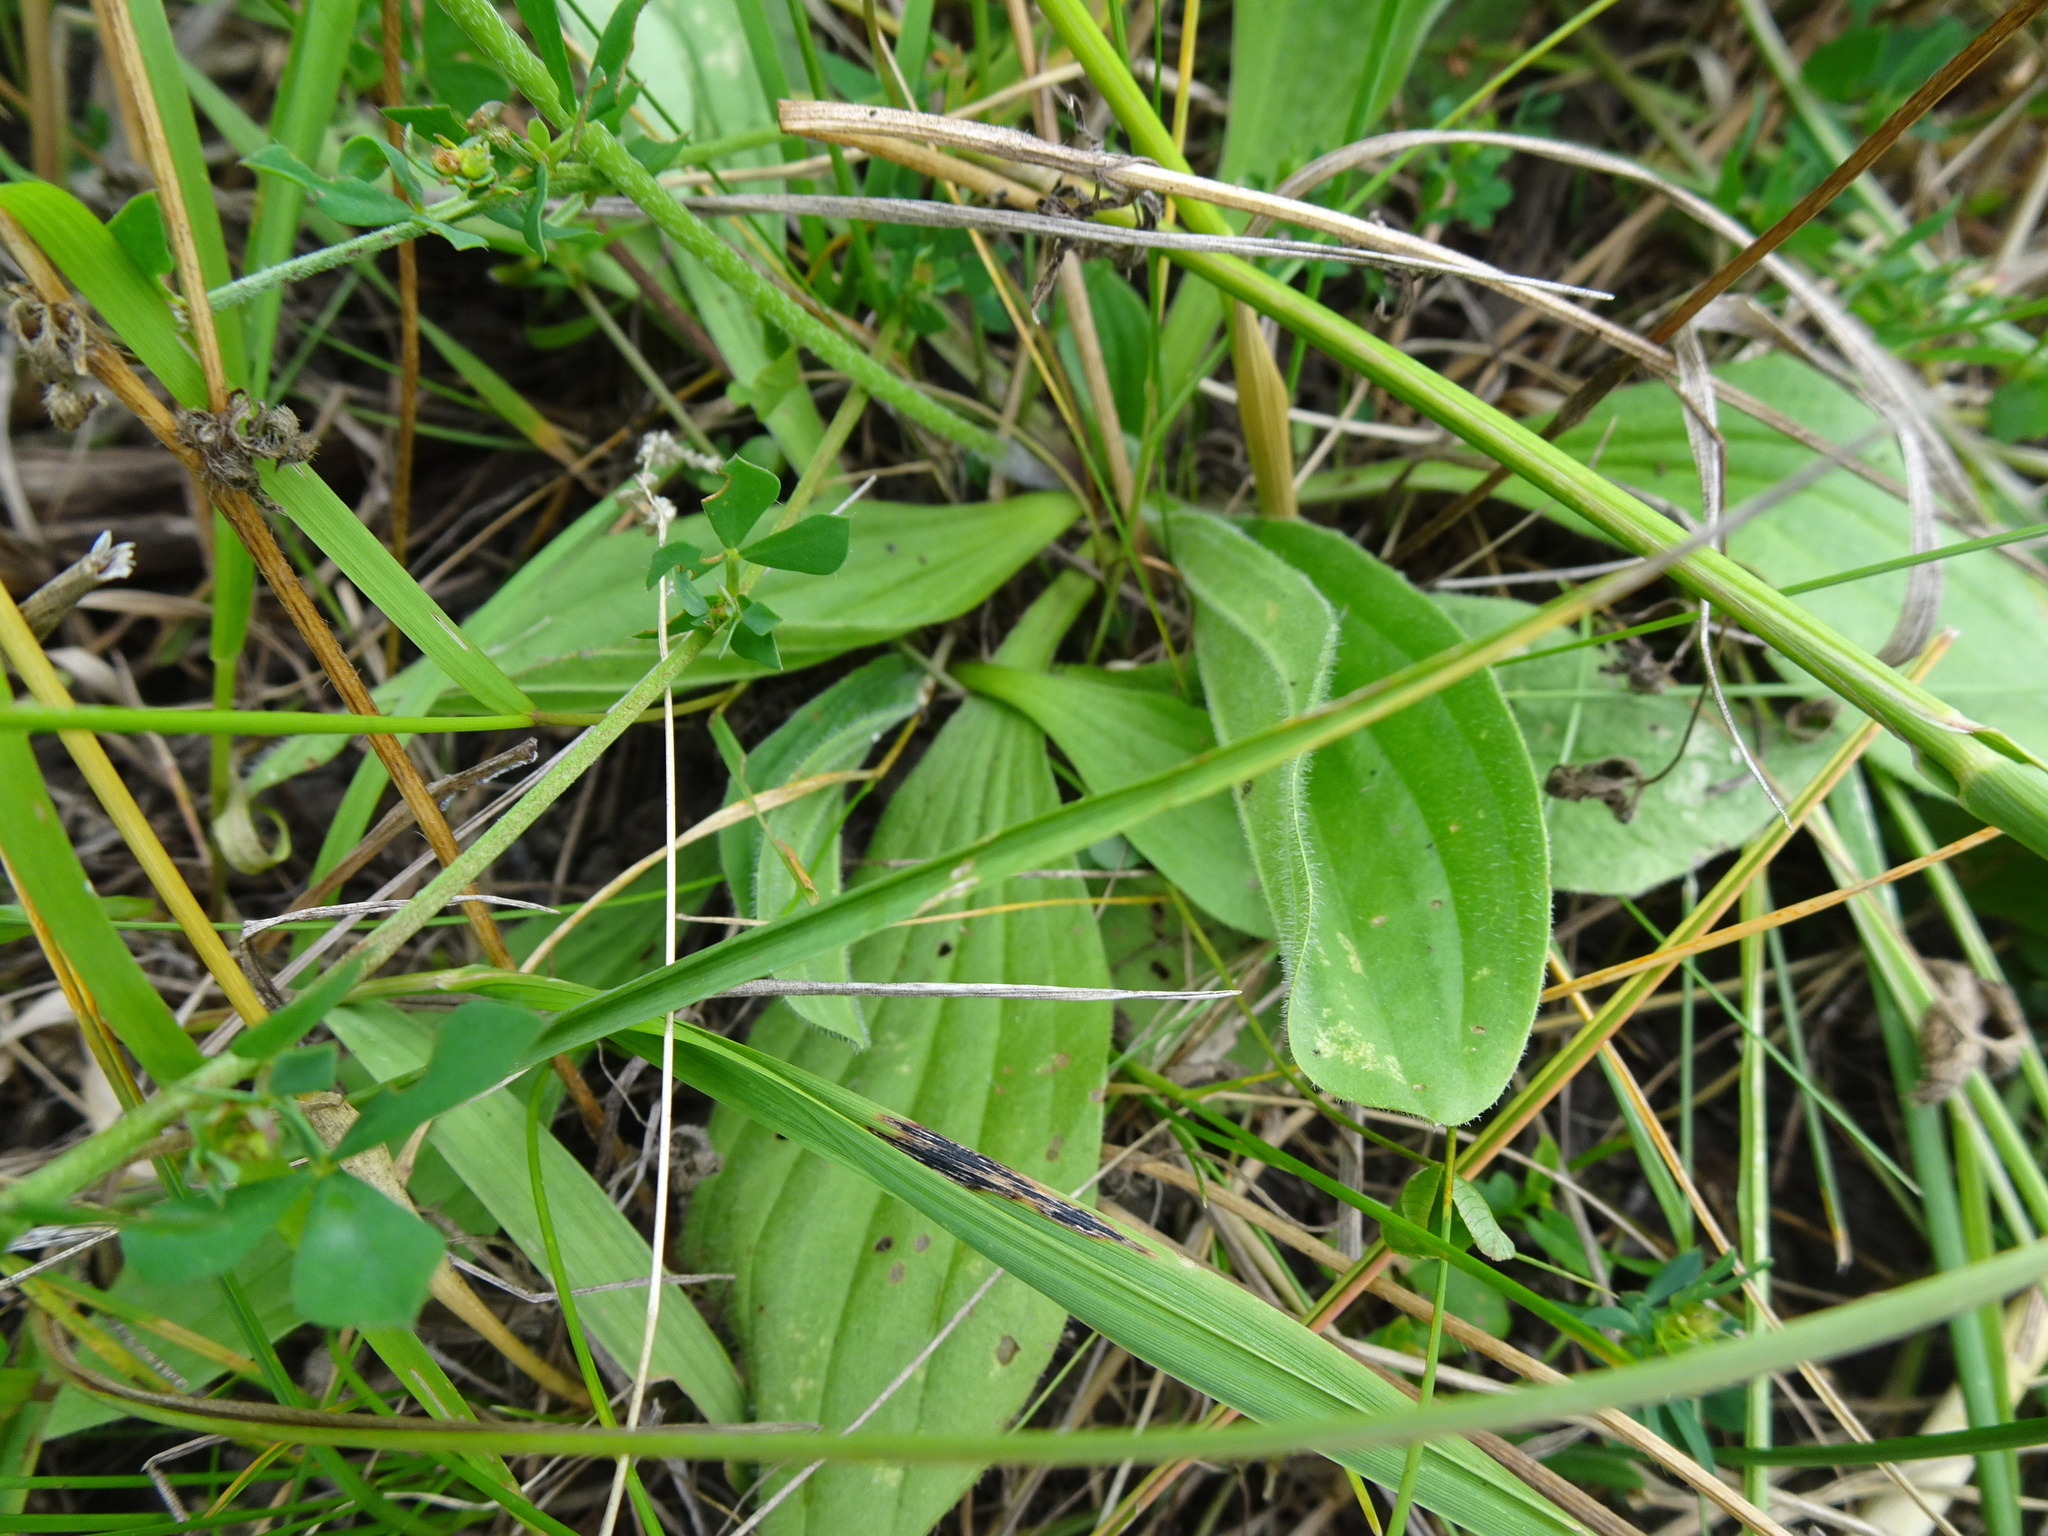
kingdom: Plantae
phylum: Tracheophyta
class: Magnoliopsida
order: Lamiales
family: Plantaginaceae
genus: Plantago
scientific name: Plantago media
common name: Hoary plantain
